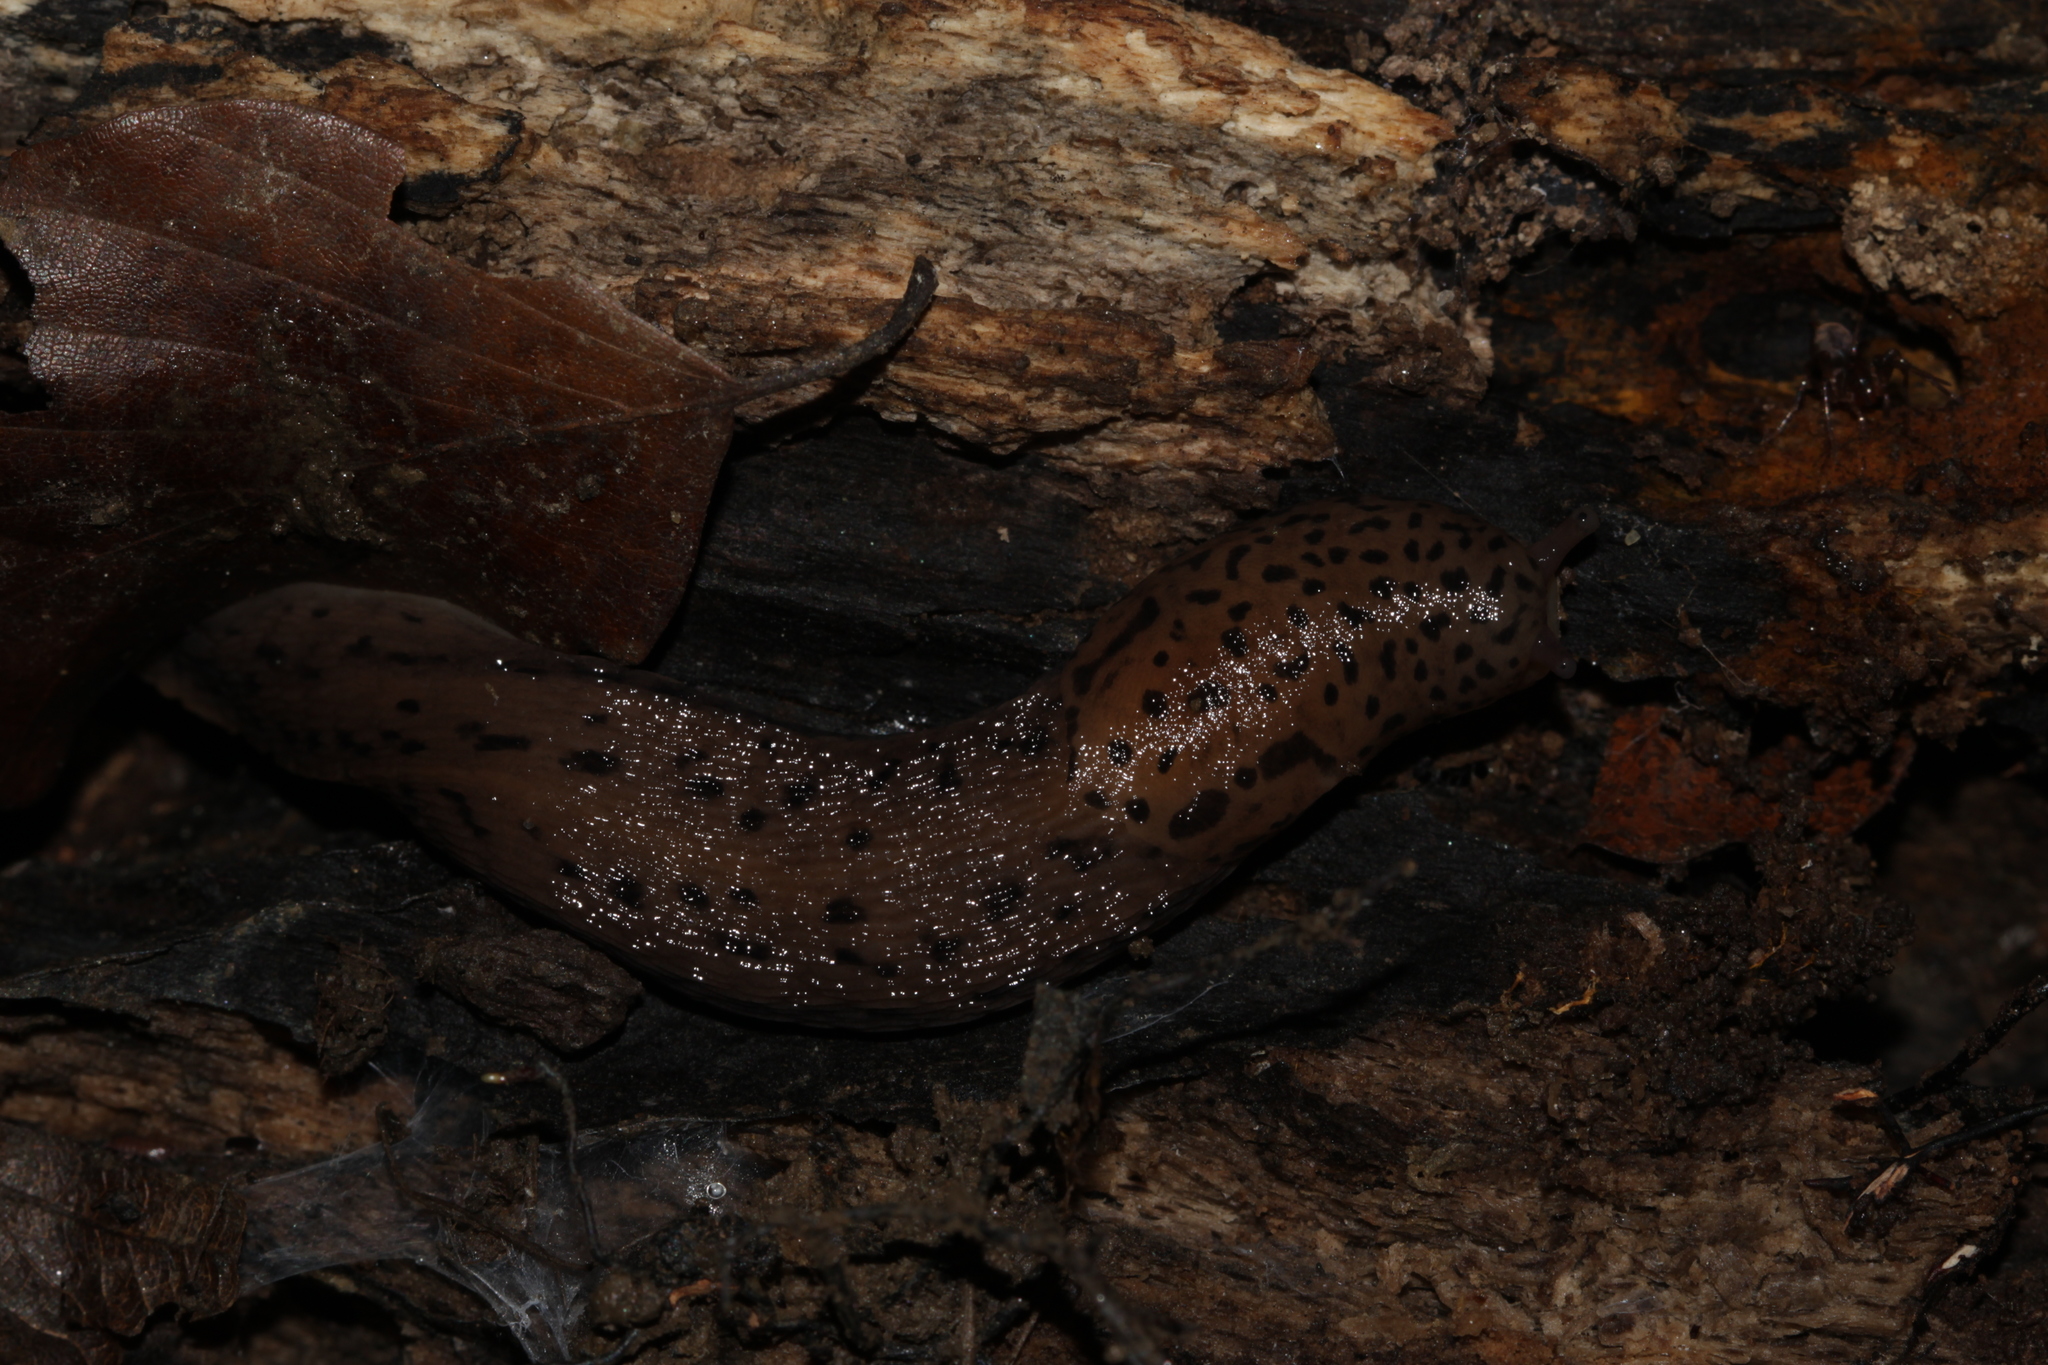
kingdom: Animalia
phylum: Mollusca
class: Gastropoda
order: Stylommatophora
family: Limacidae
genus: Limax
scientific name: Limax maximus
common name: Great grey slug
